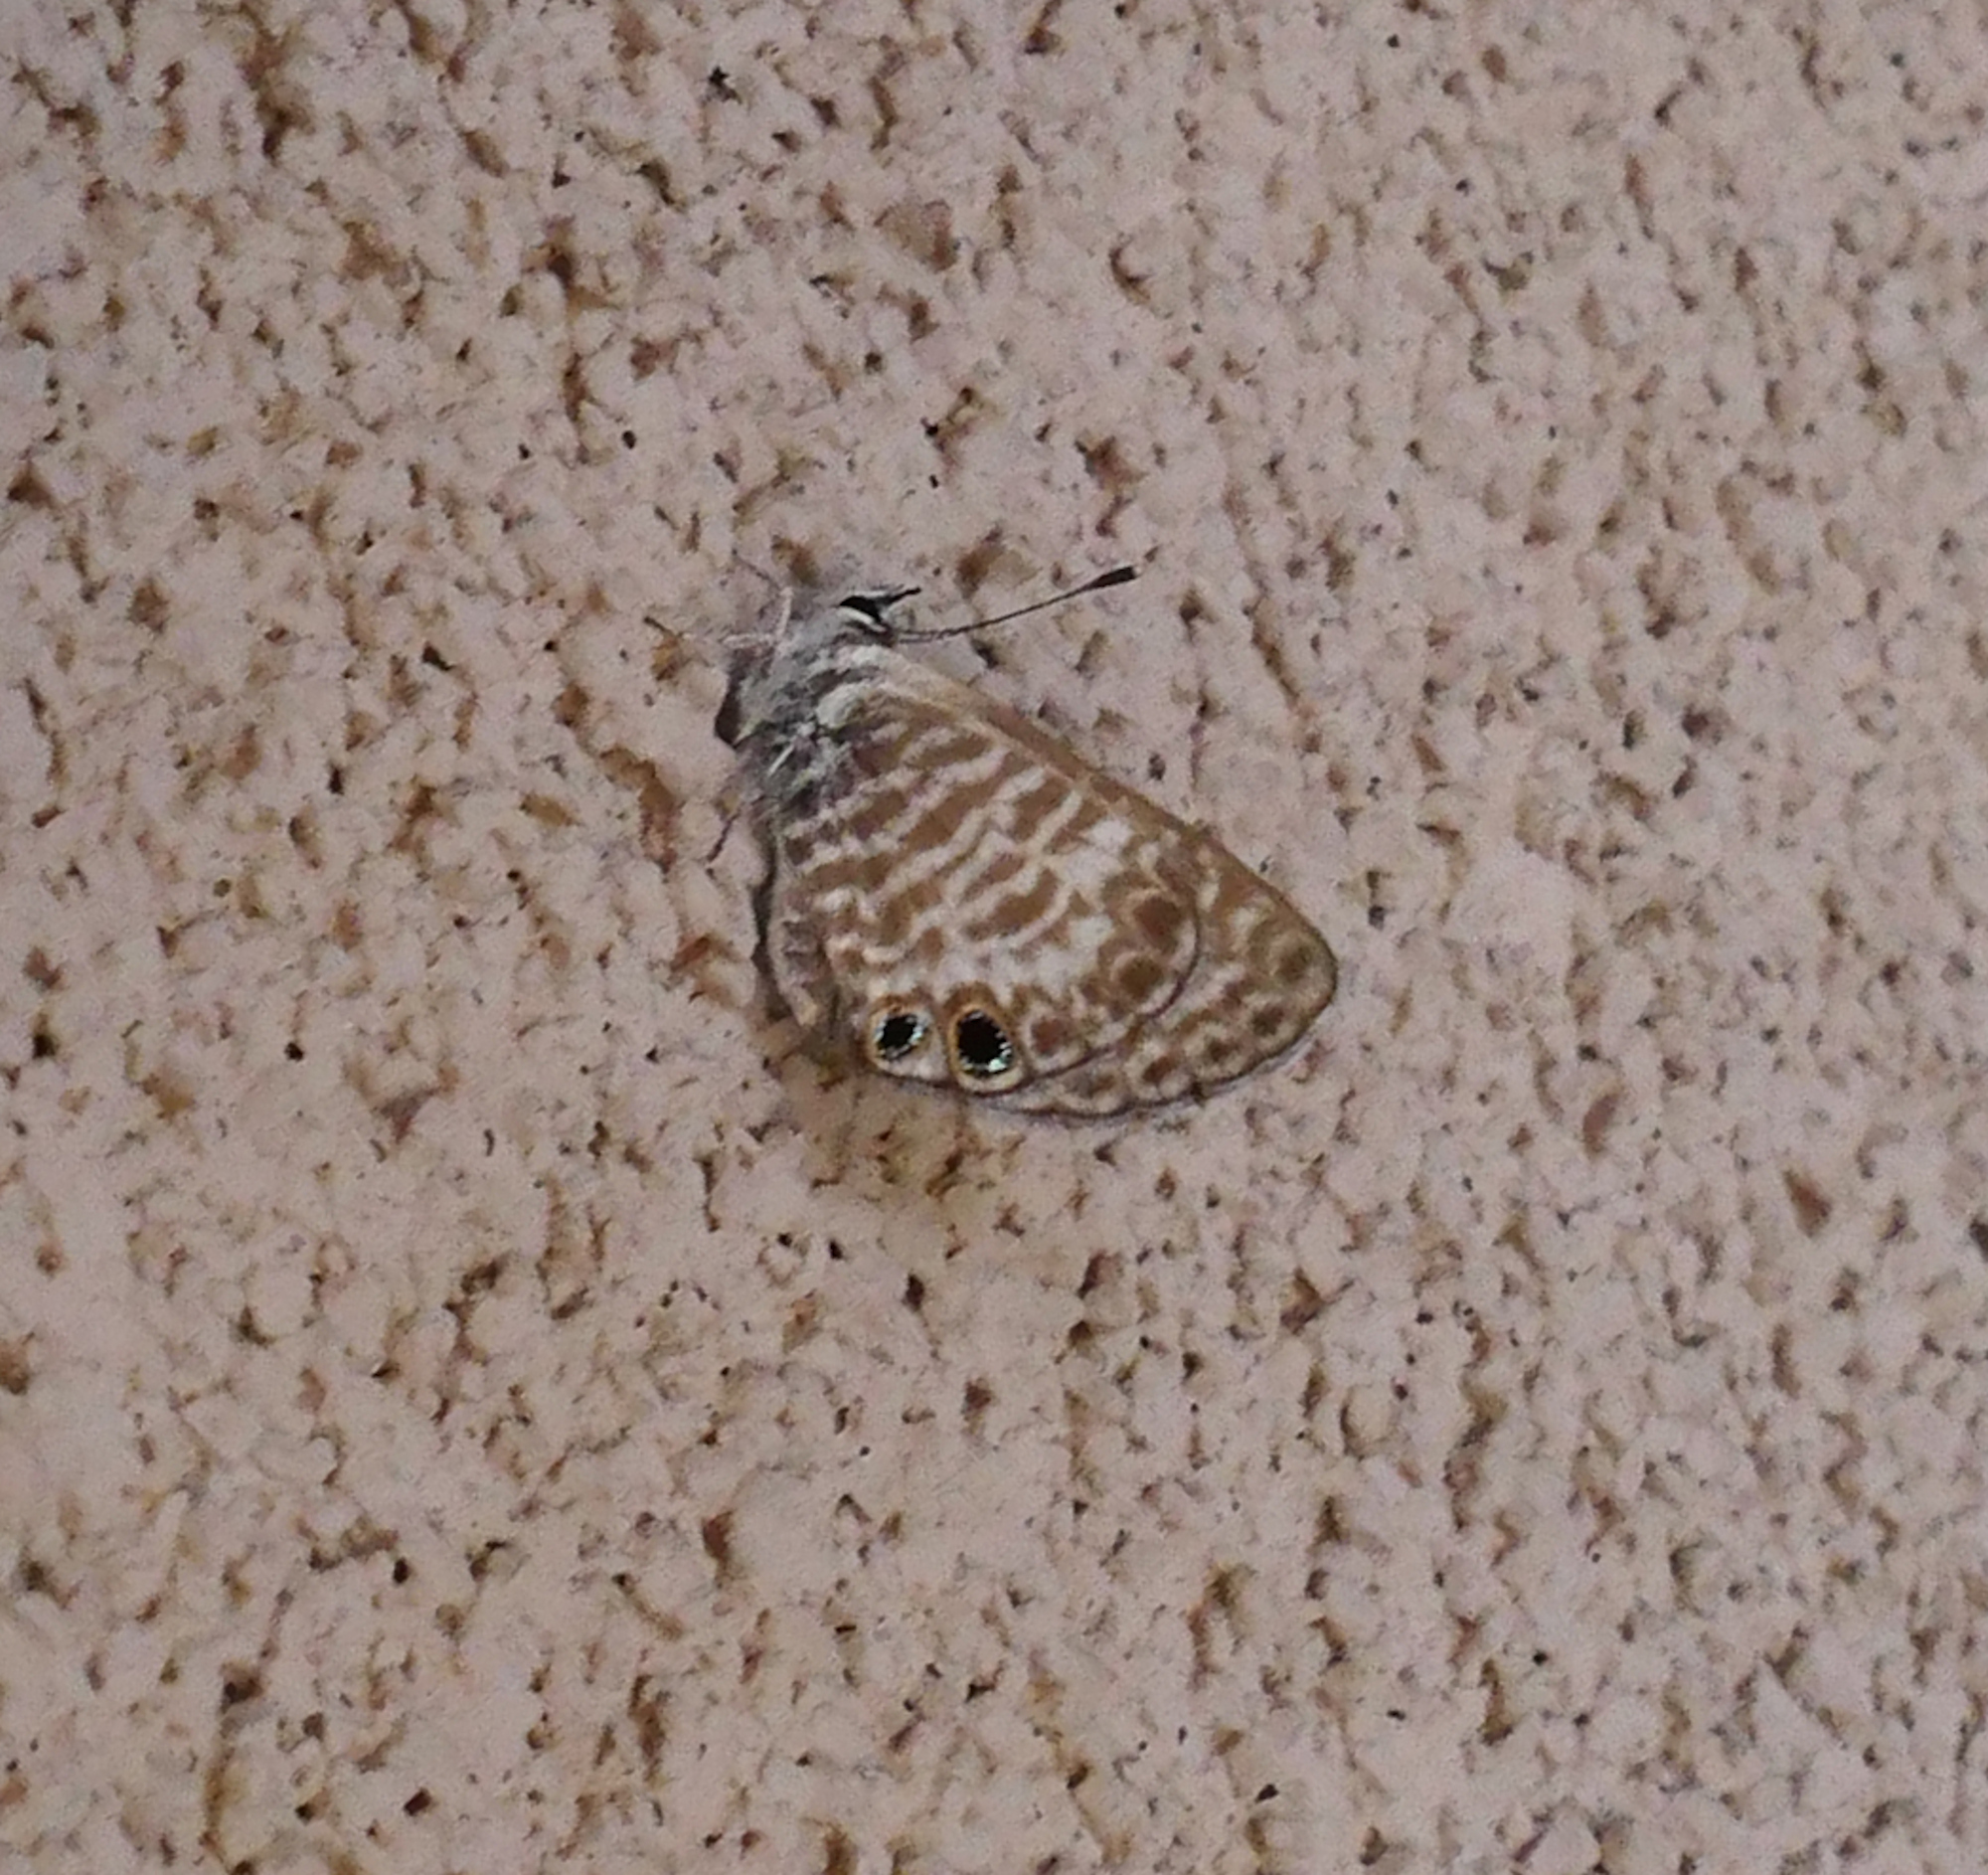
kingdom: Animalia
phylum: Arthropoda
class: Insecta
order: Lepidoptera
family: Lycaenidae
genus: Leptotes
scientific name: Leptotes marina
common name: Marine blue
